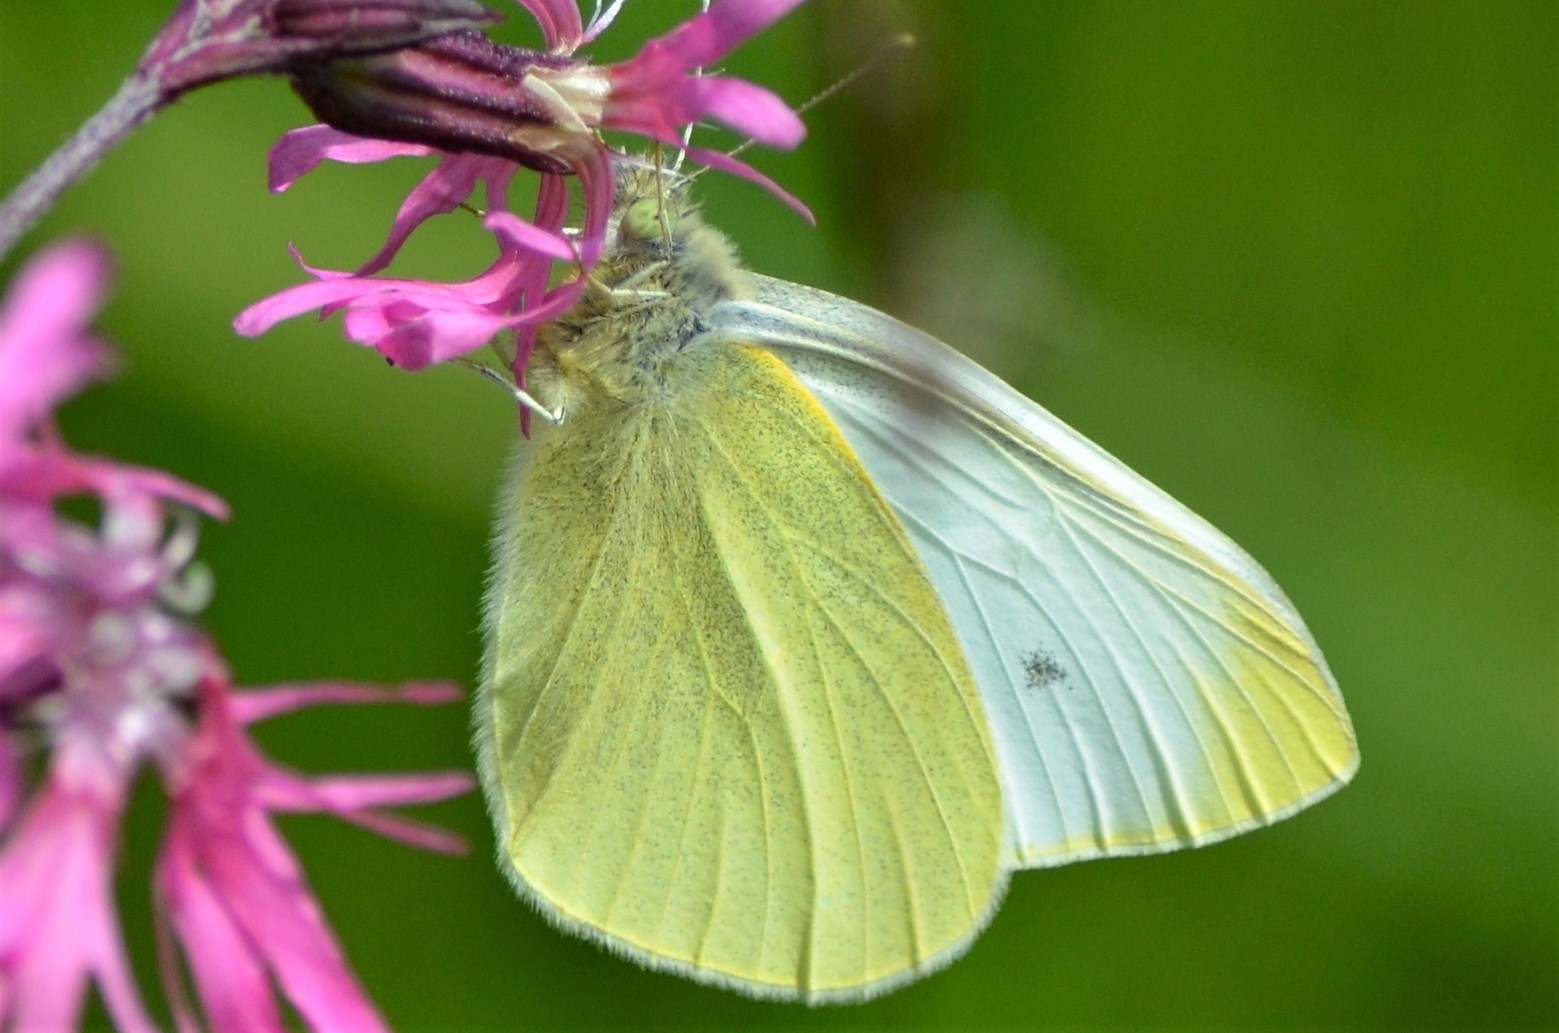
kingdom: Animalia
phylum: Arthropoda
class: Insecta
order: Lepidoptera
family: Pieridae
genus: Pieris
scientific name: Pieris rapae
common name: Small white
